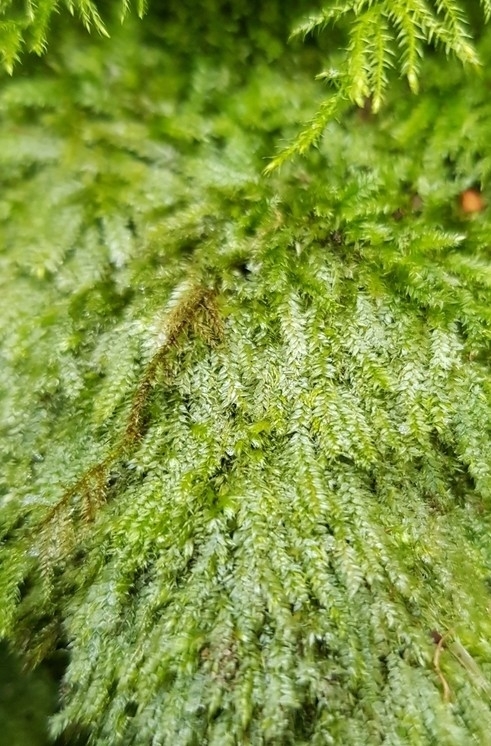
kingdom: Plantae
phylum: Bryophyta
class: Bryopsida
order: Hypnales
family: Plagiotheciaceae
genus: Pseudotaxiphyllum
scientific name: Pseudotaxiphyllum elegans
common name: Elegant silk moss
